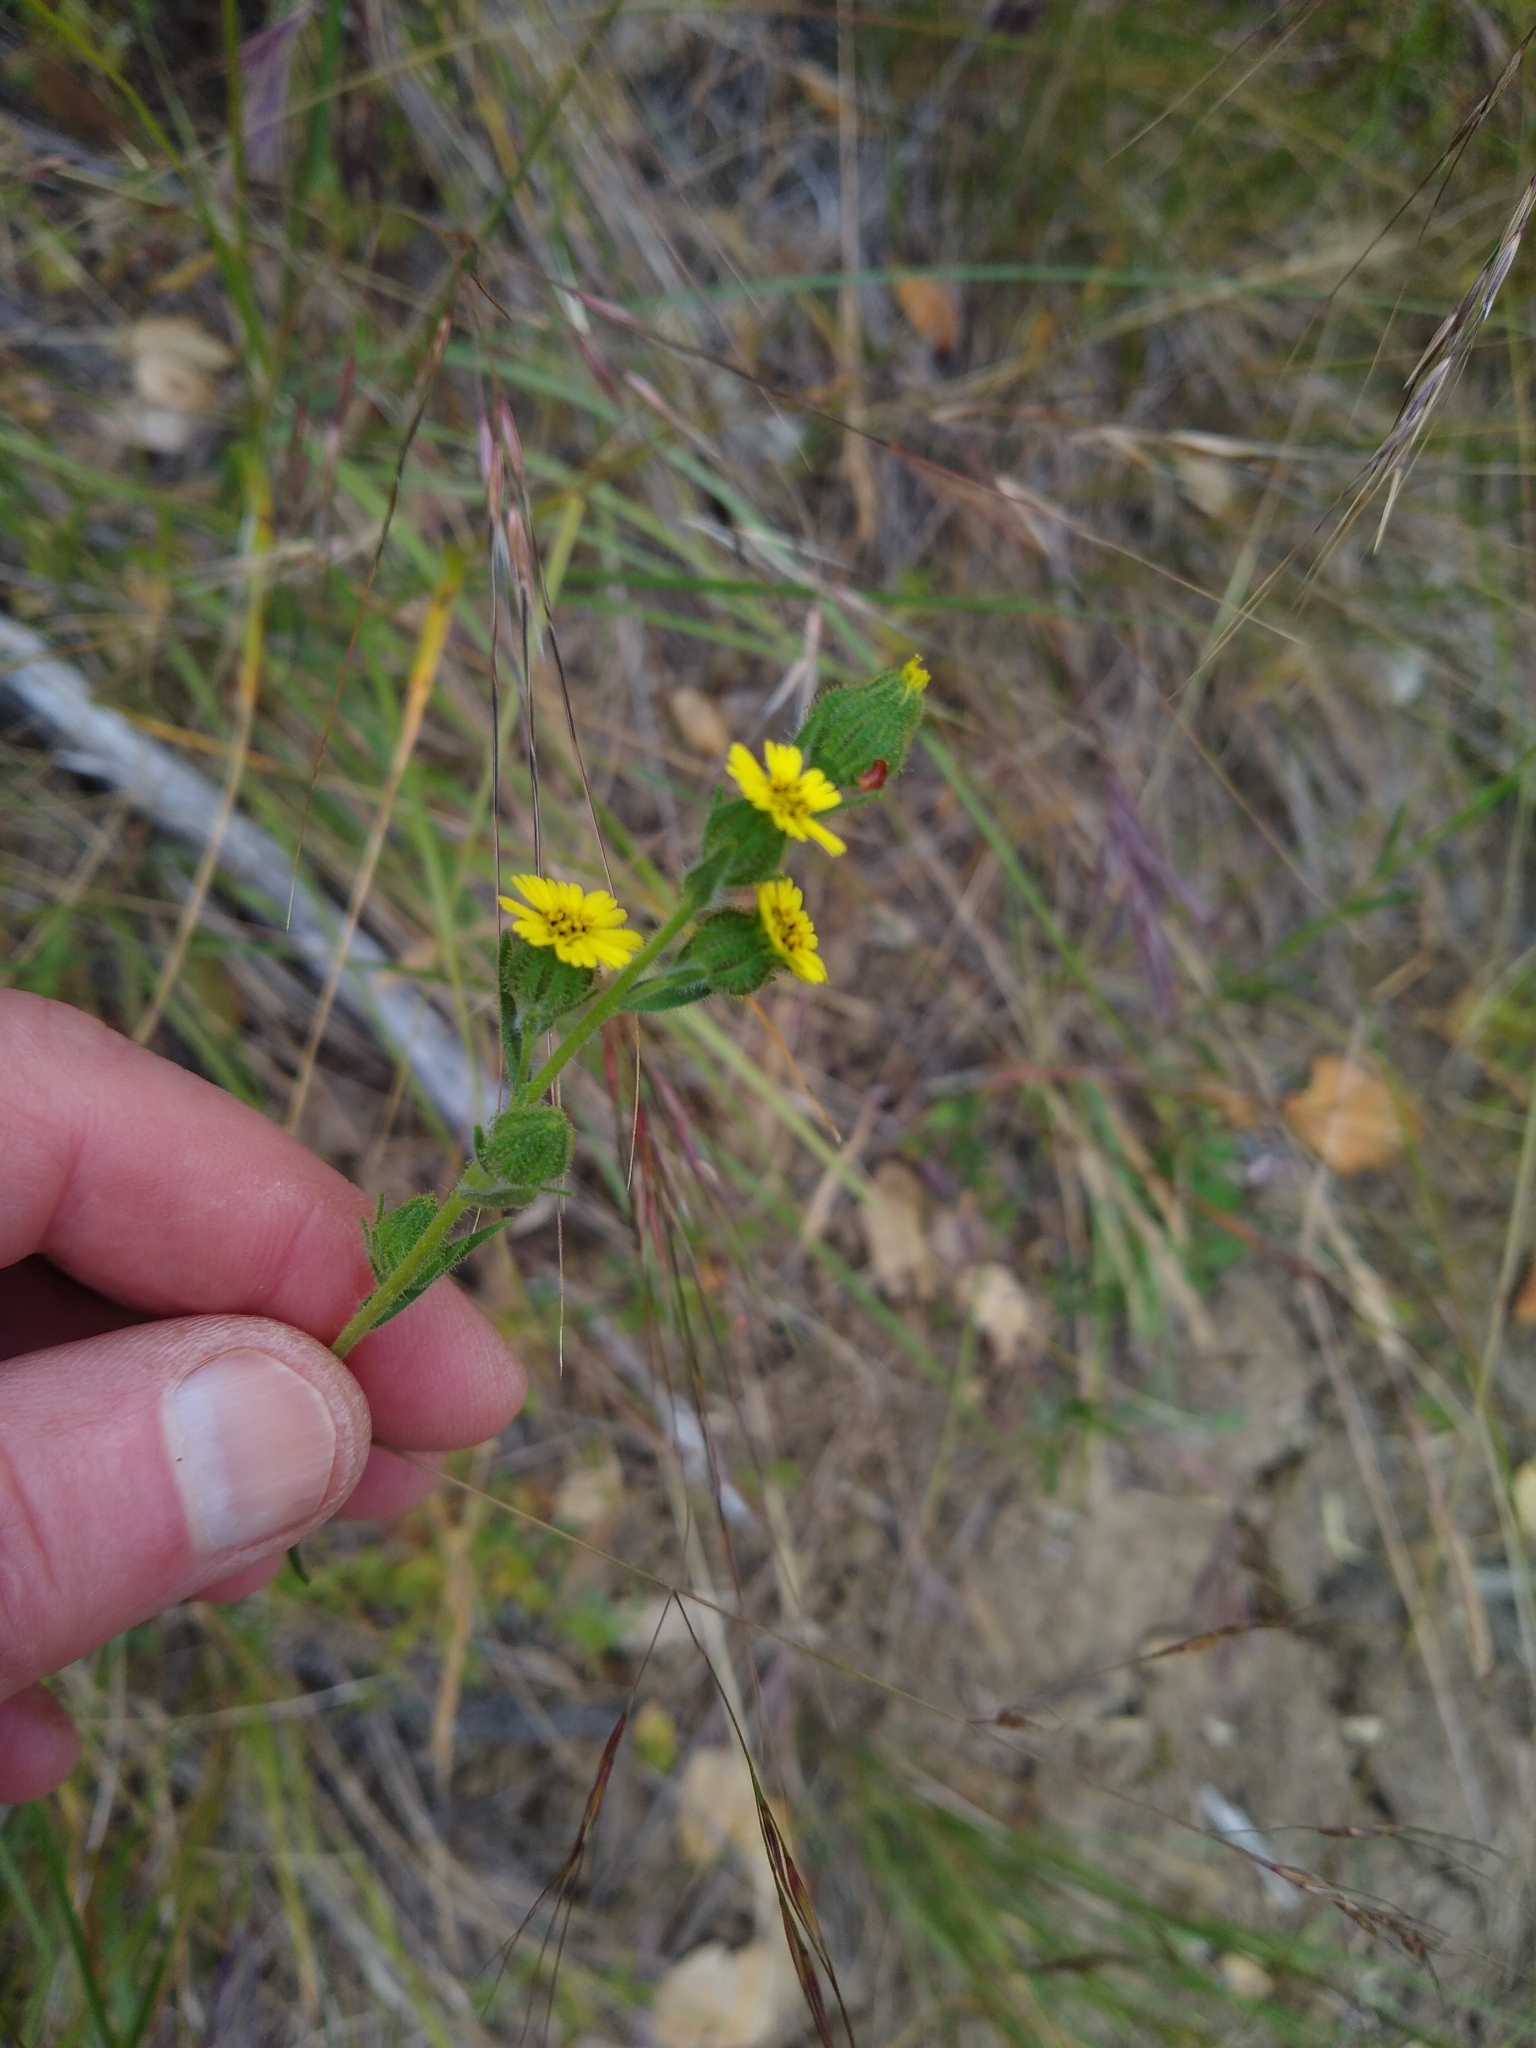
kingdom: Plantae
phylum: Tracheophyta
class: Magnoliopsida
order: Asterales
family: Asteraceae
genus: Madia
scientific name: Madia gracilis
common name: Grassy tarweed
